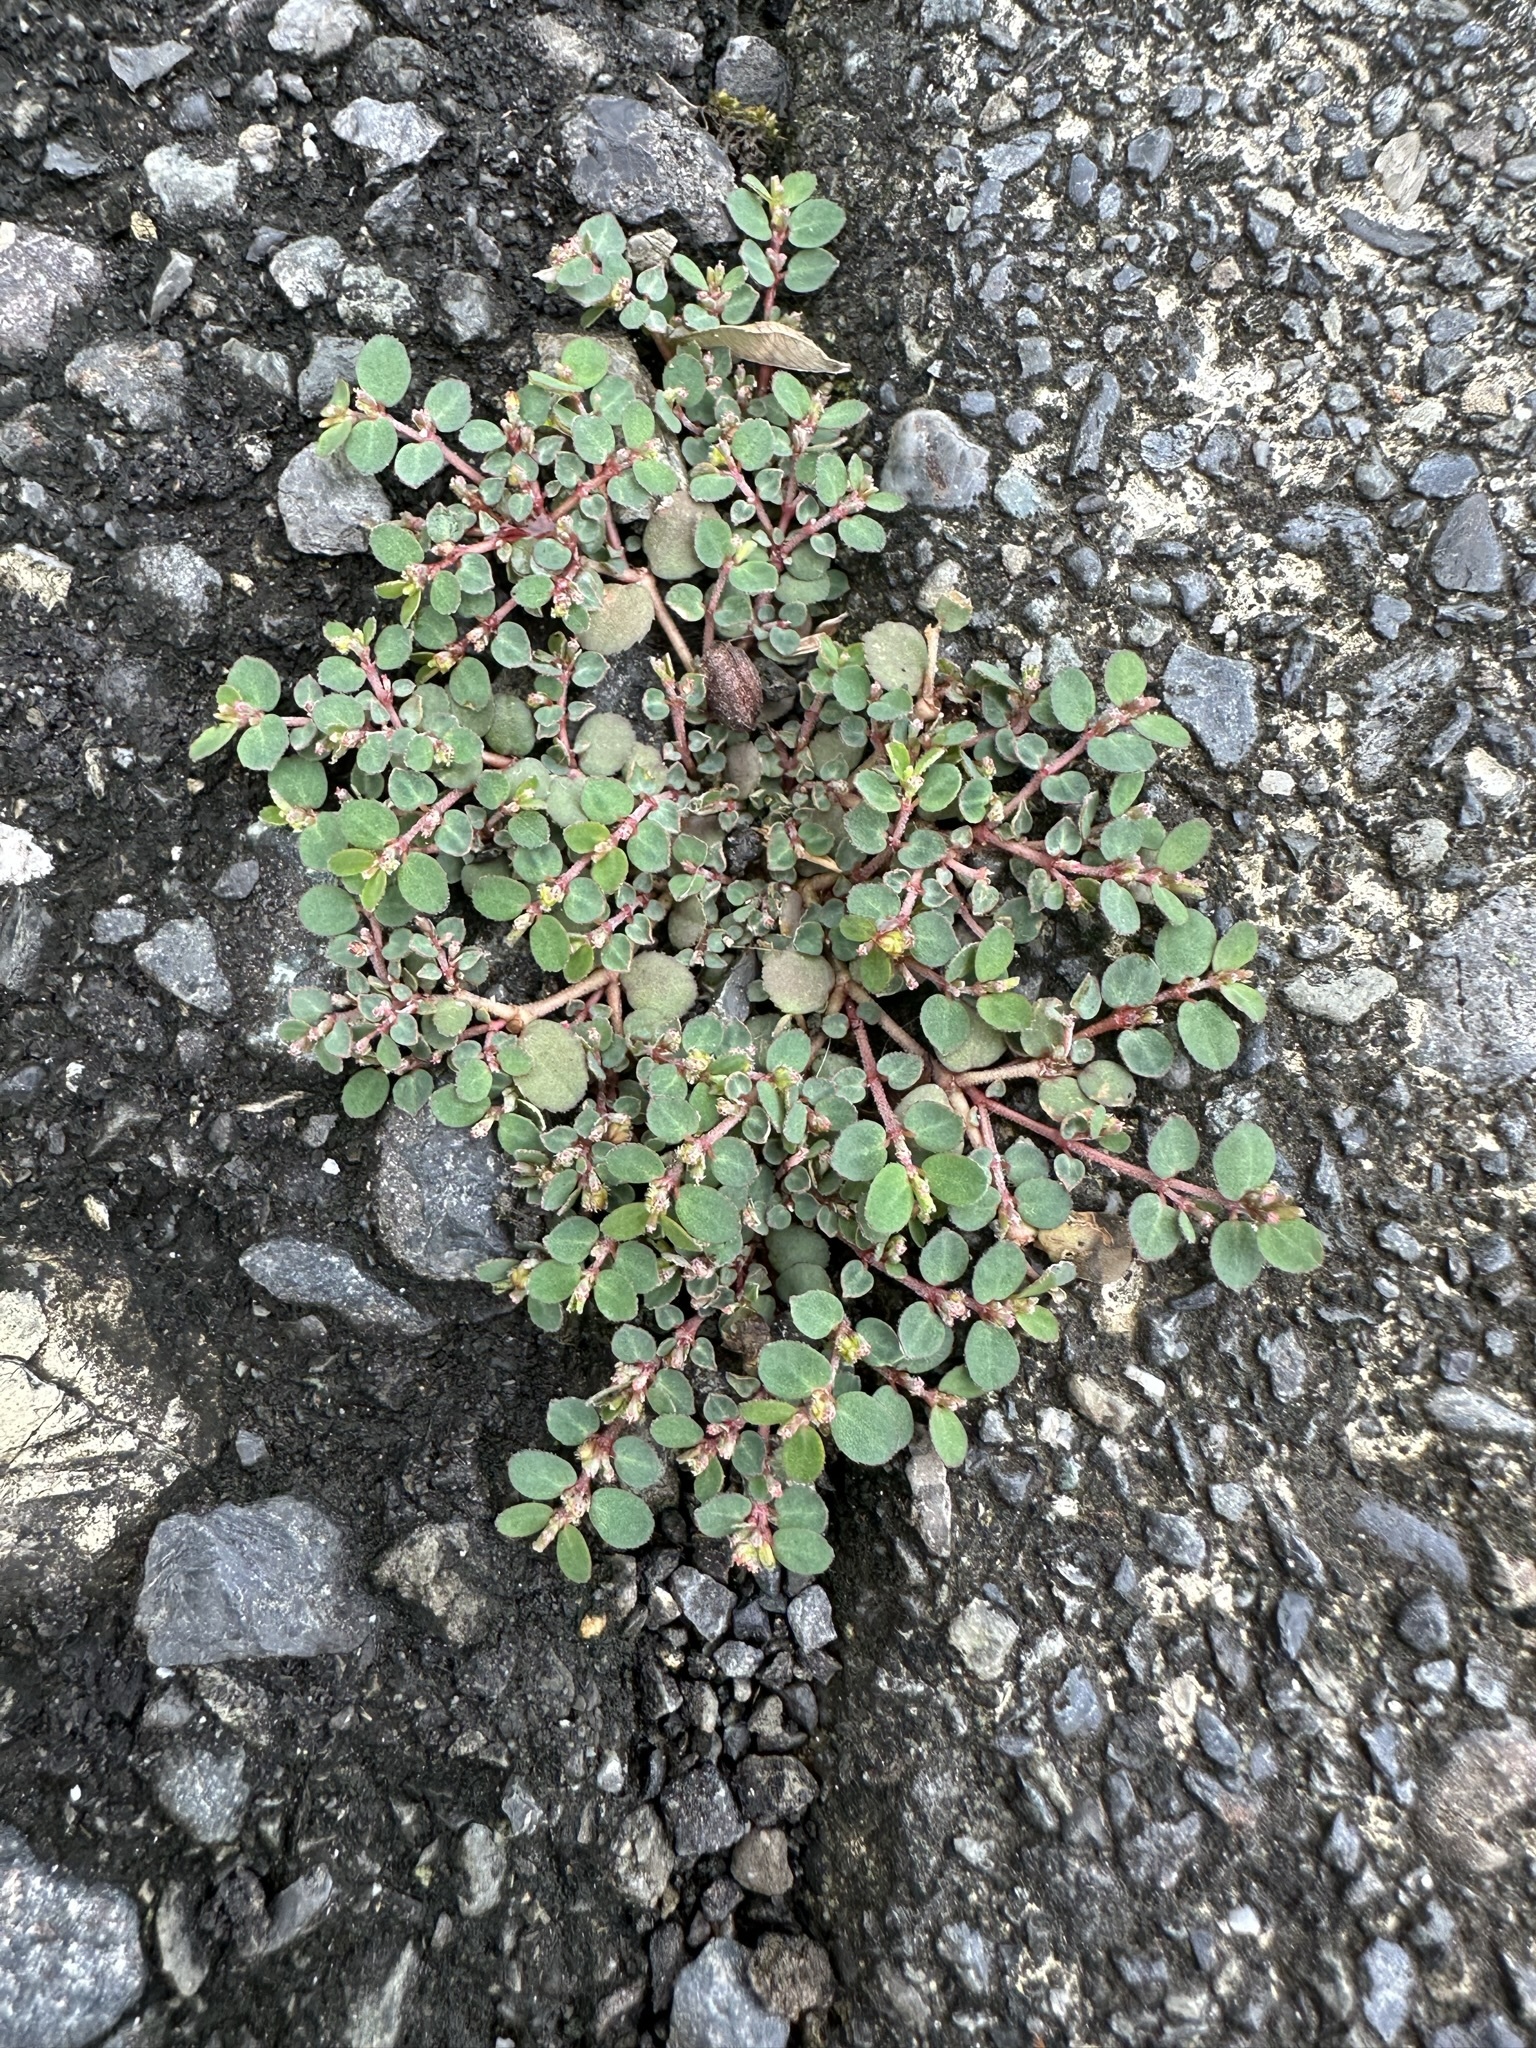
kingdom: Plantae
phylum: Tracheophyta
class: Magnoliopsida
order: Malpighiales
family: Euphorbiaceae
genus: Euphorbia
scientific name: Euphorbia prostrata
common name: Prostrate sandmat
